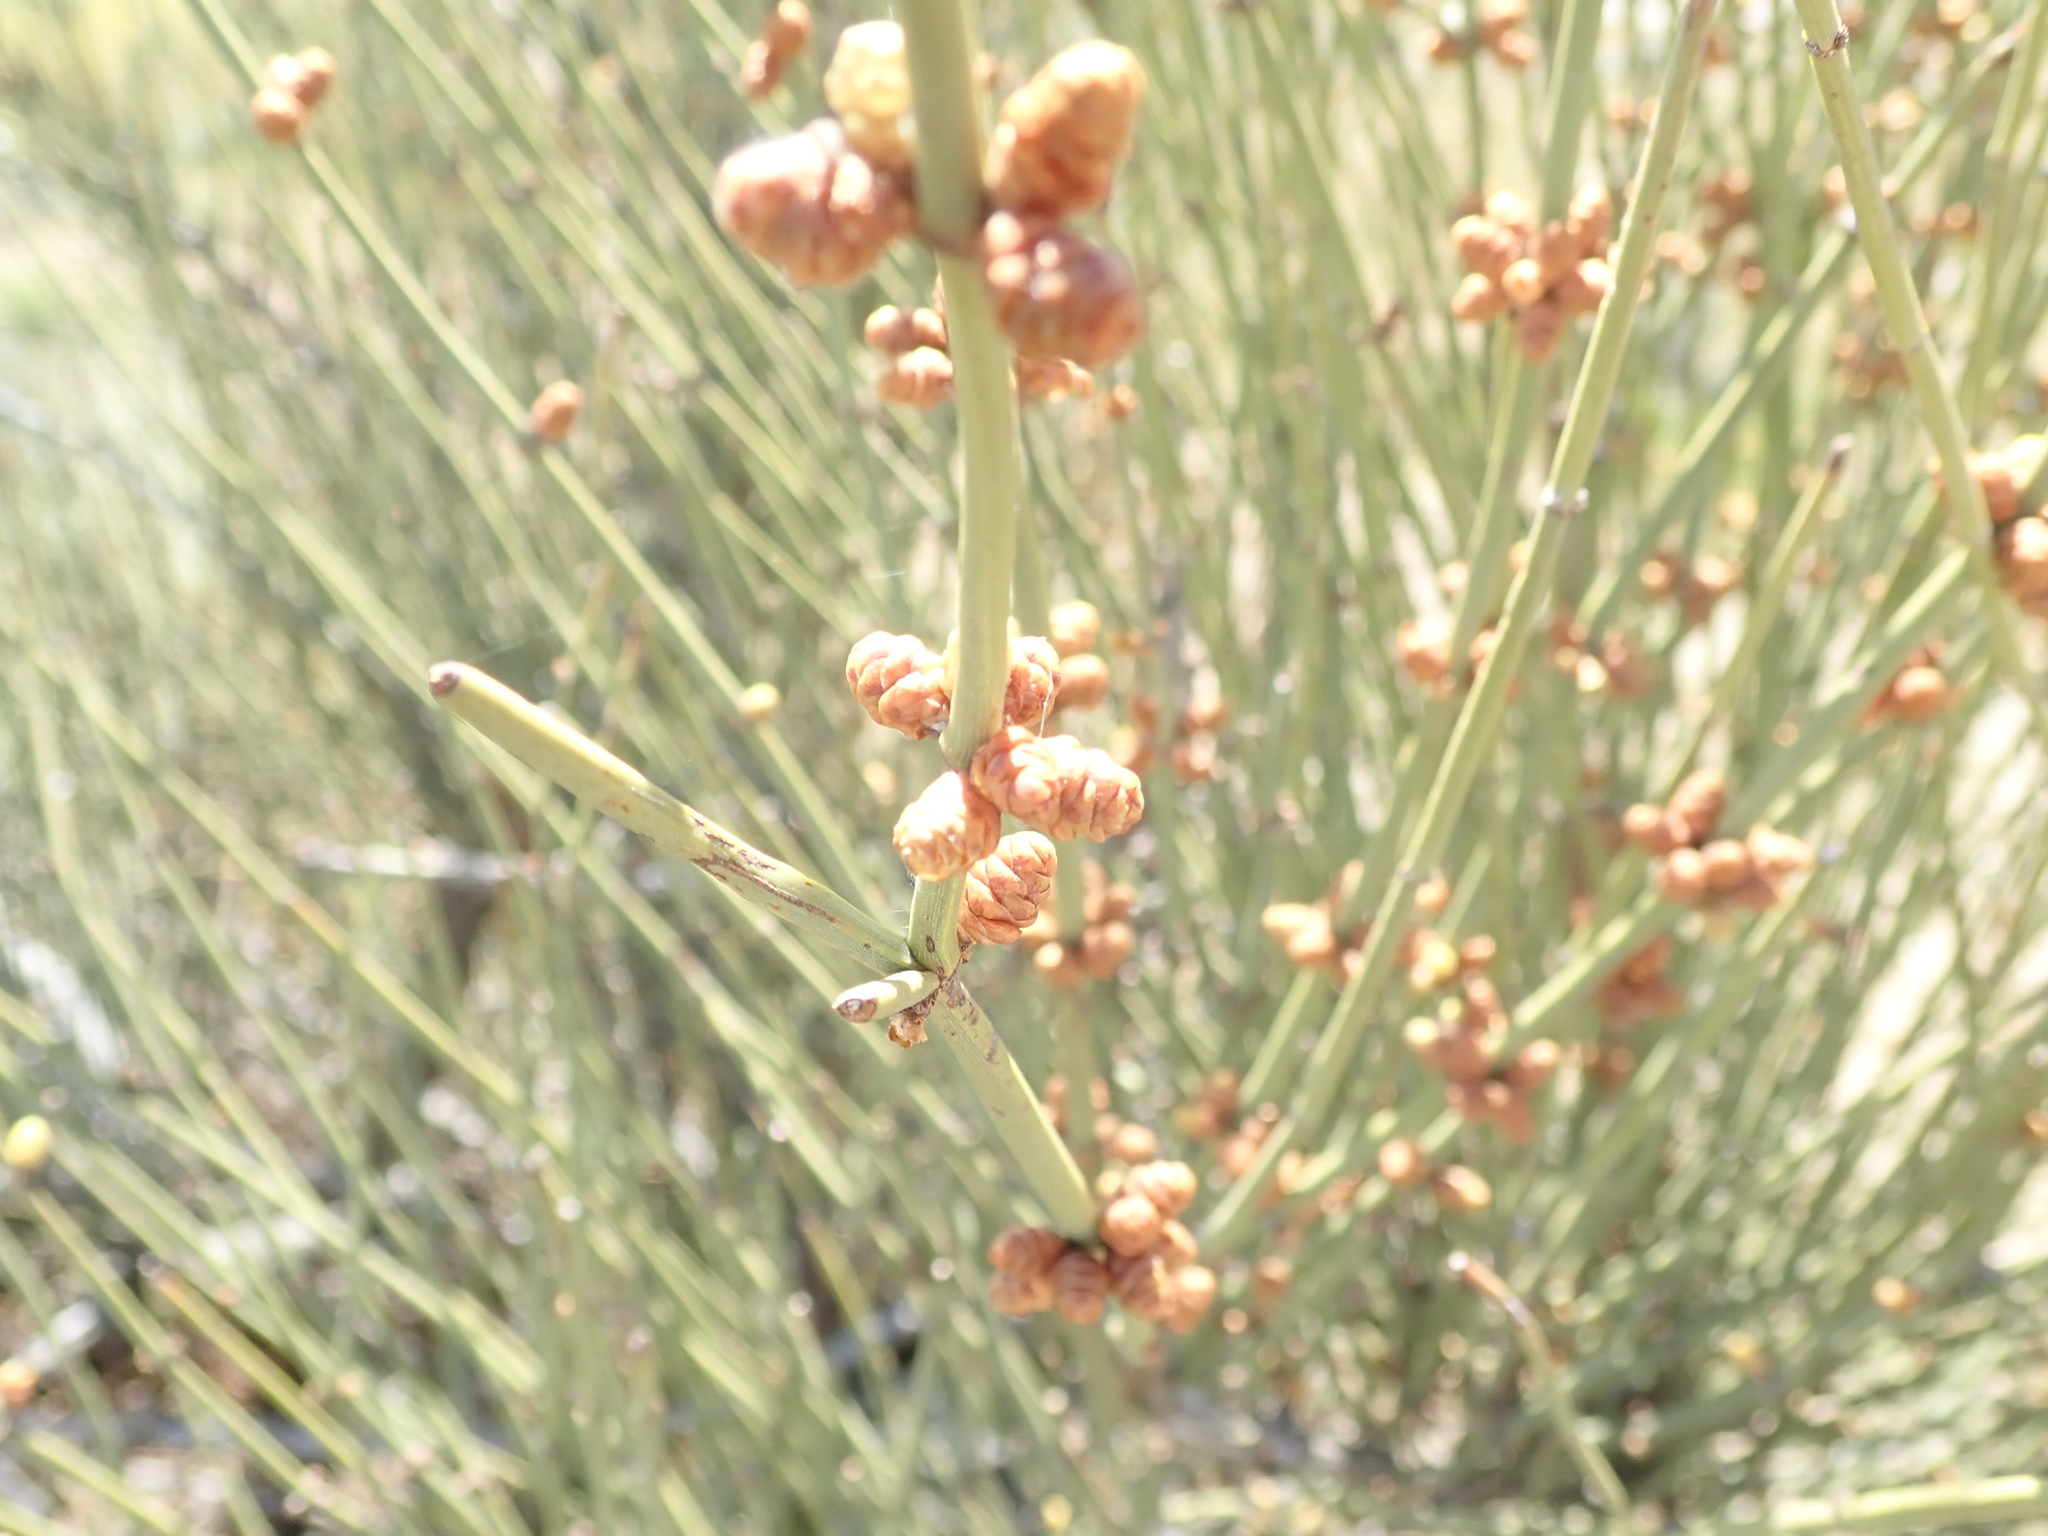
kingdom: Plantae
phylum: Tracheophyta
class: Gnetopsida
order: Ephedrales
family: Ephedraceae
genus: Ephedra
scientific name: Ephedra californica
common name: California ephedra
